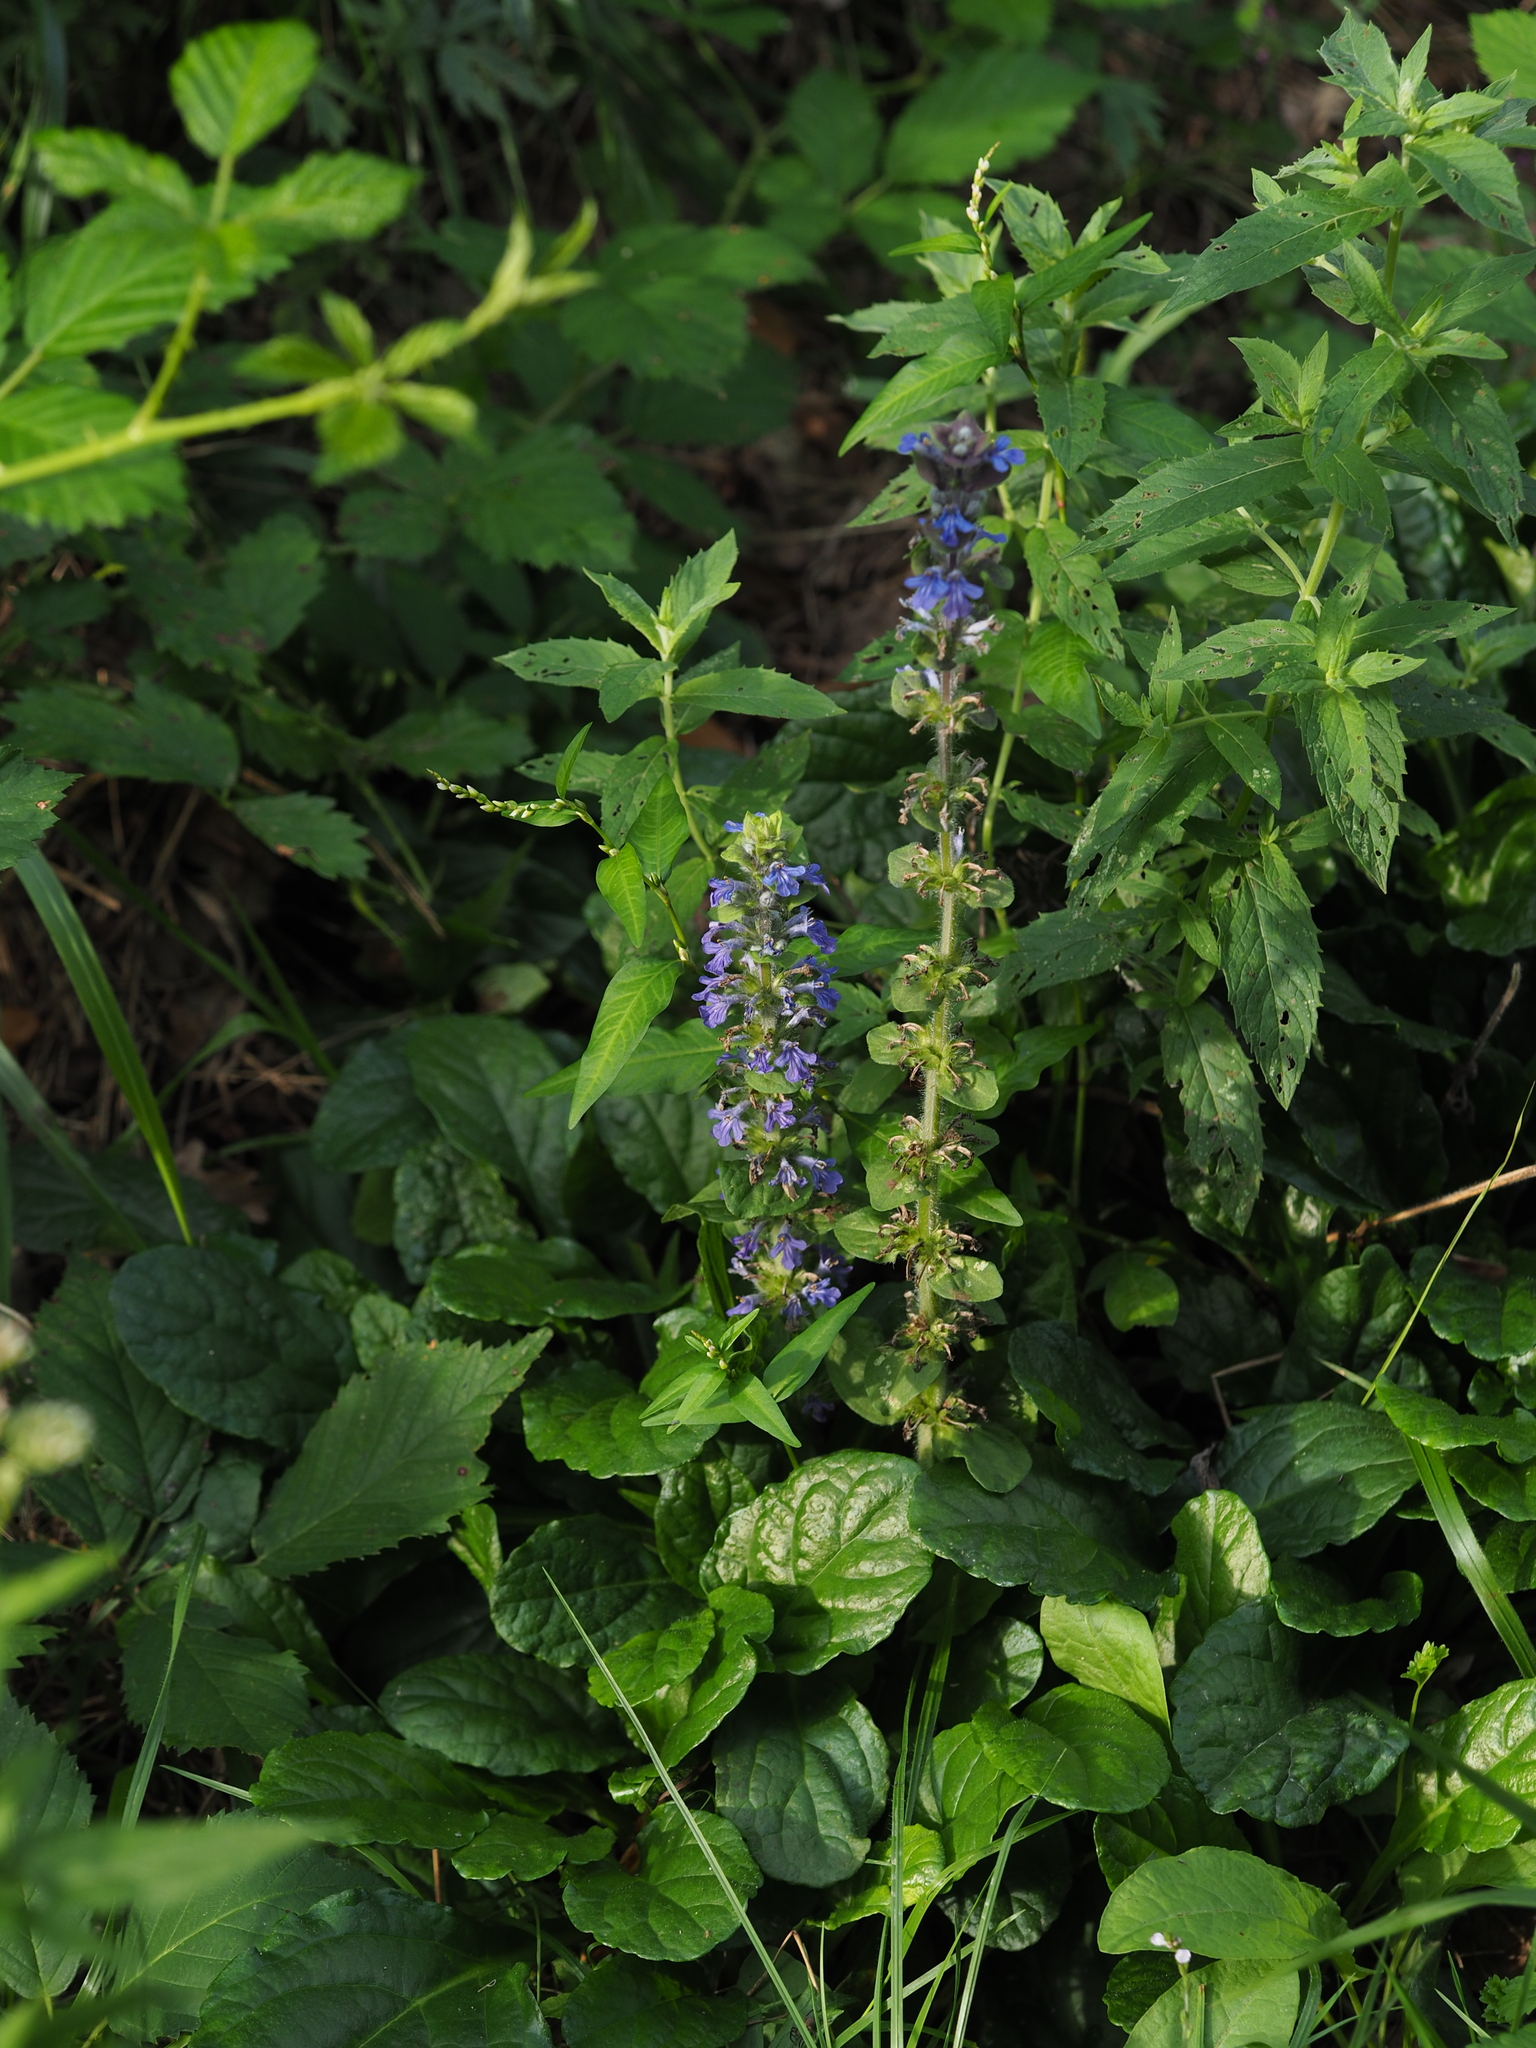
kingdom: Plantae
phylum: Tracheophyta
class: Magnoliopsida
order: Lamiales
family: Lamiaceae
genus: Ajuga
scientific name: Ajuga reptans
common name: Bugle
